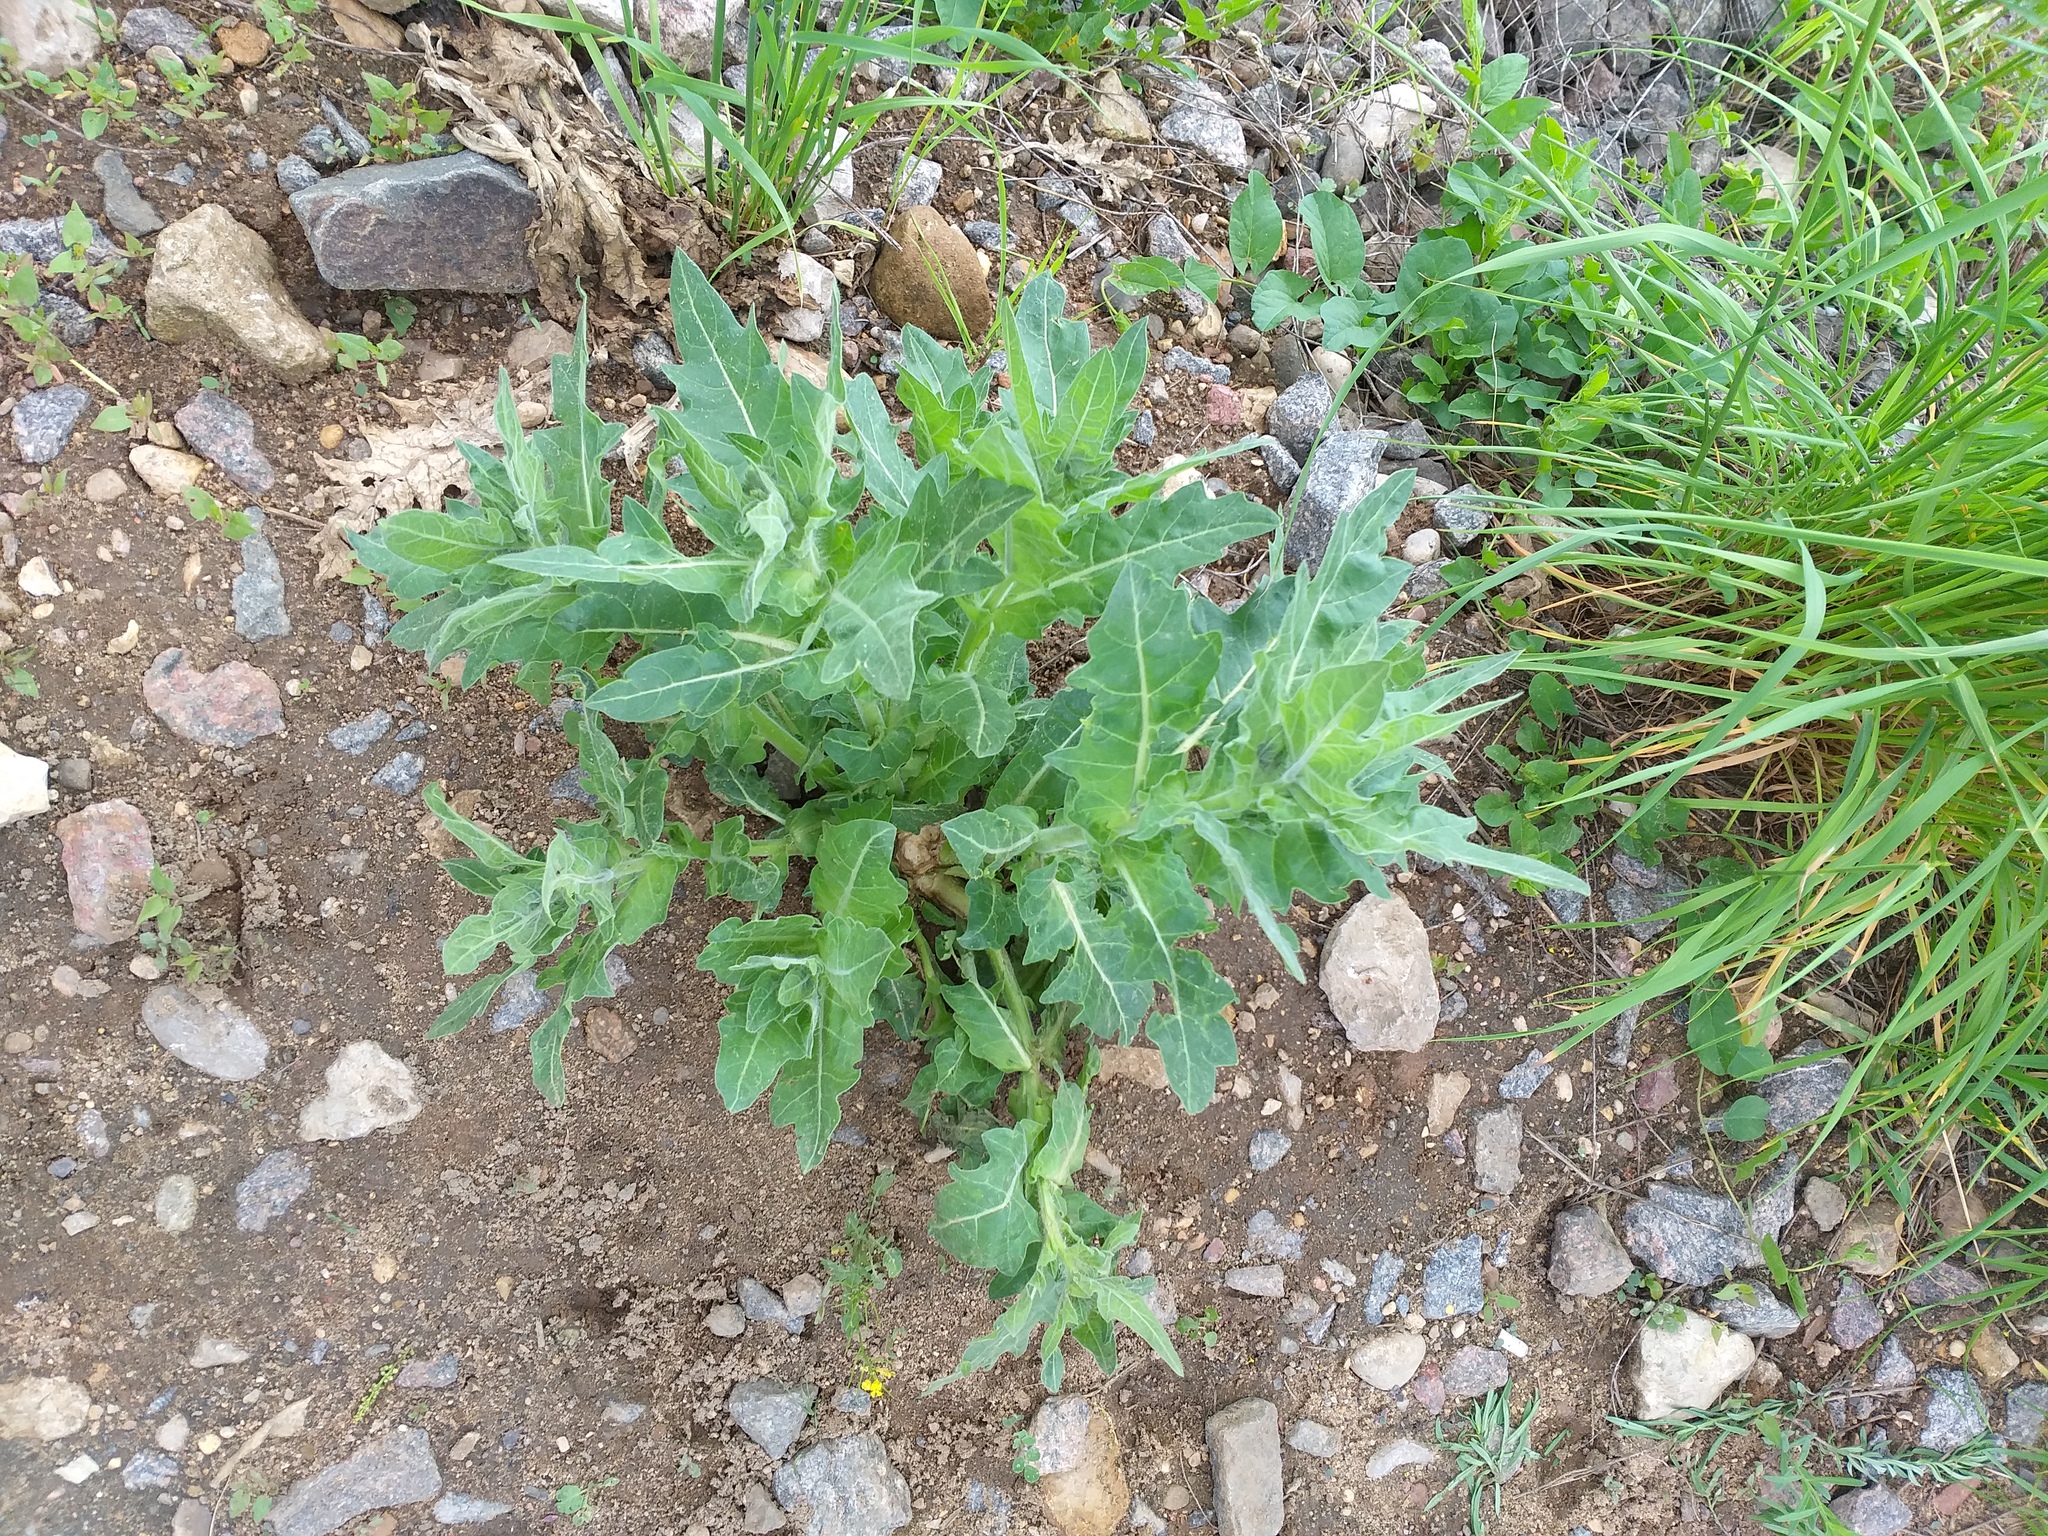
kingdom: Plantae
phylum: Tracheophyta
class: Magnoliopsida
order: Solanales
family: Solanaceae
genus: Hyoscyamus
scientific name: Hyoscyamus niger
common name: Henbane
